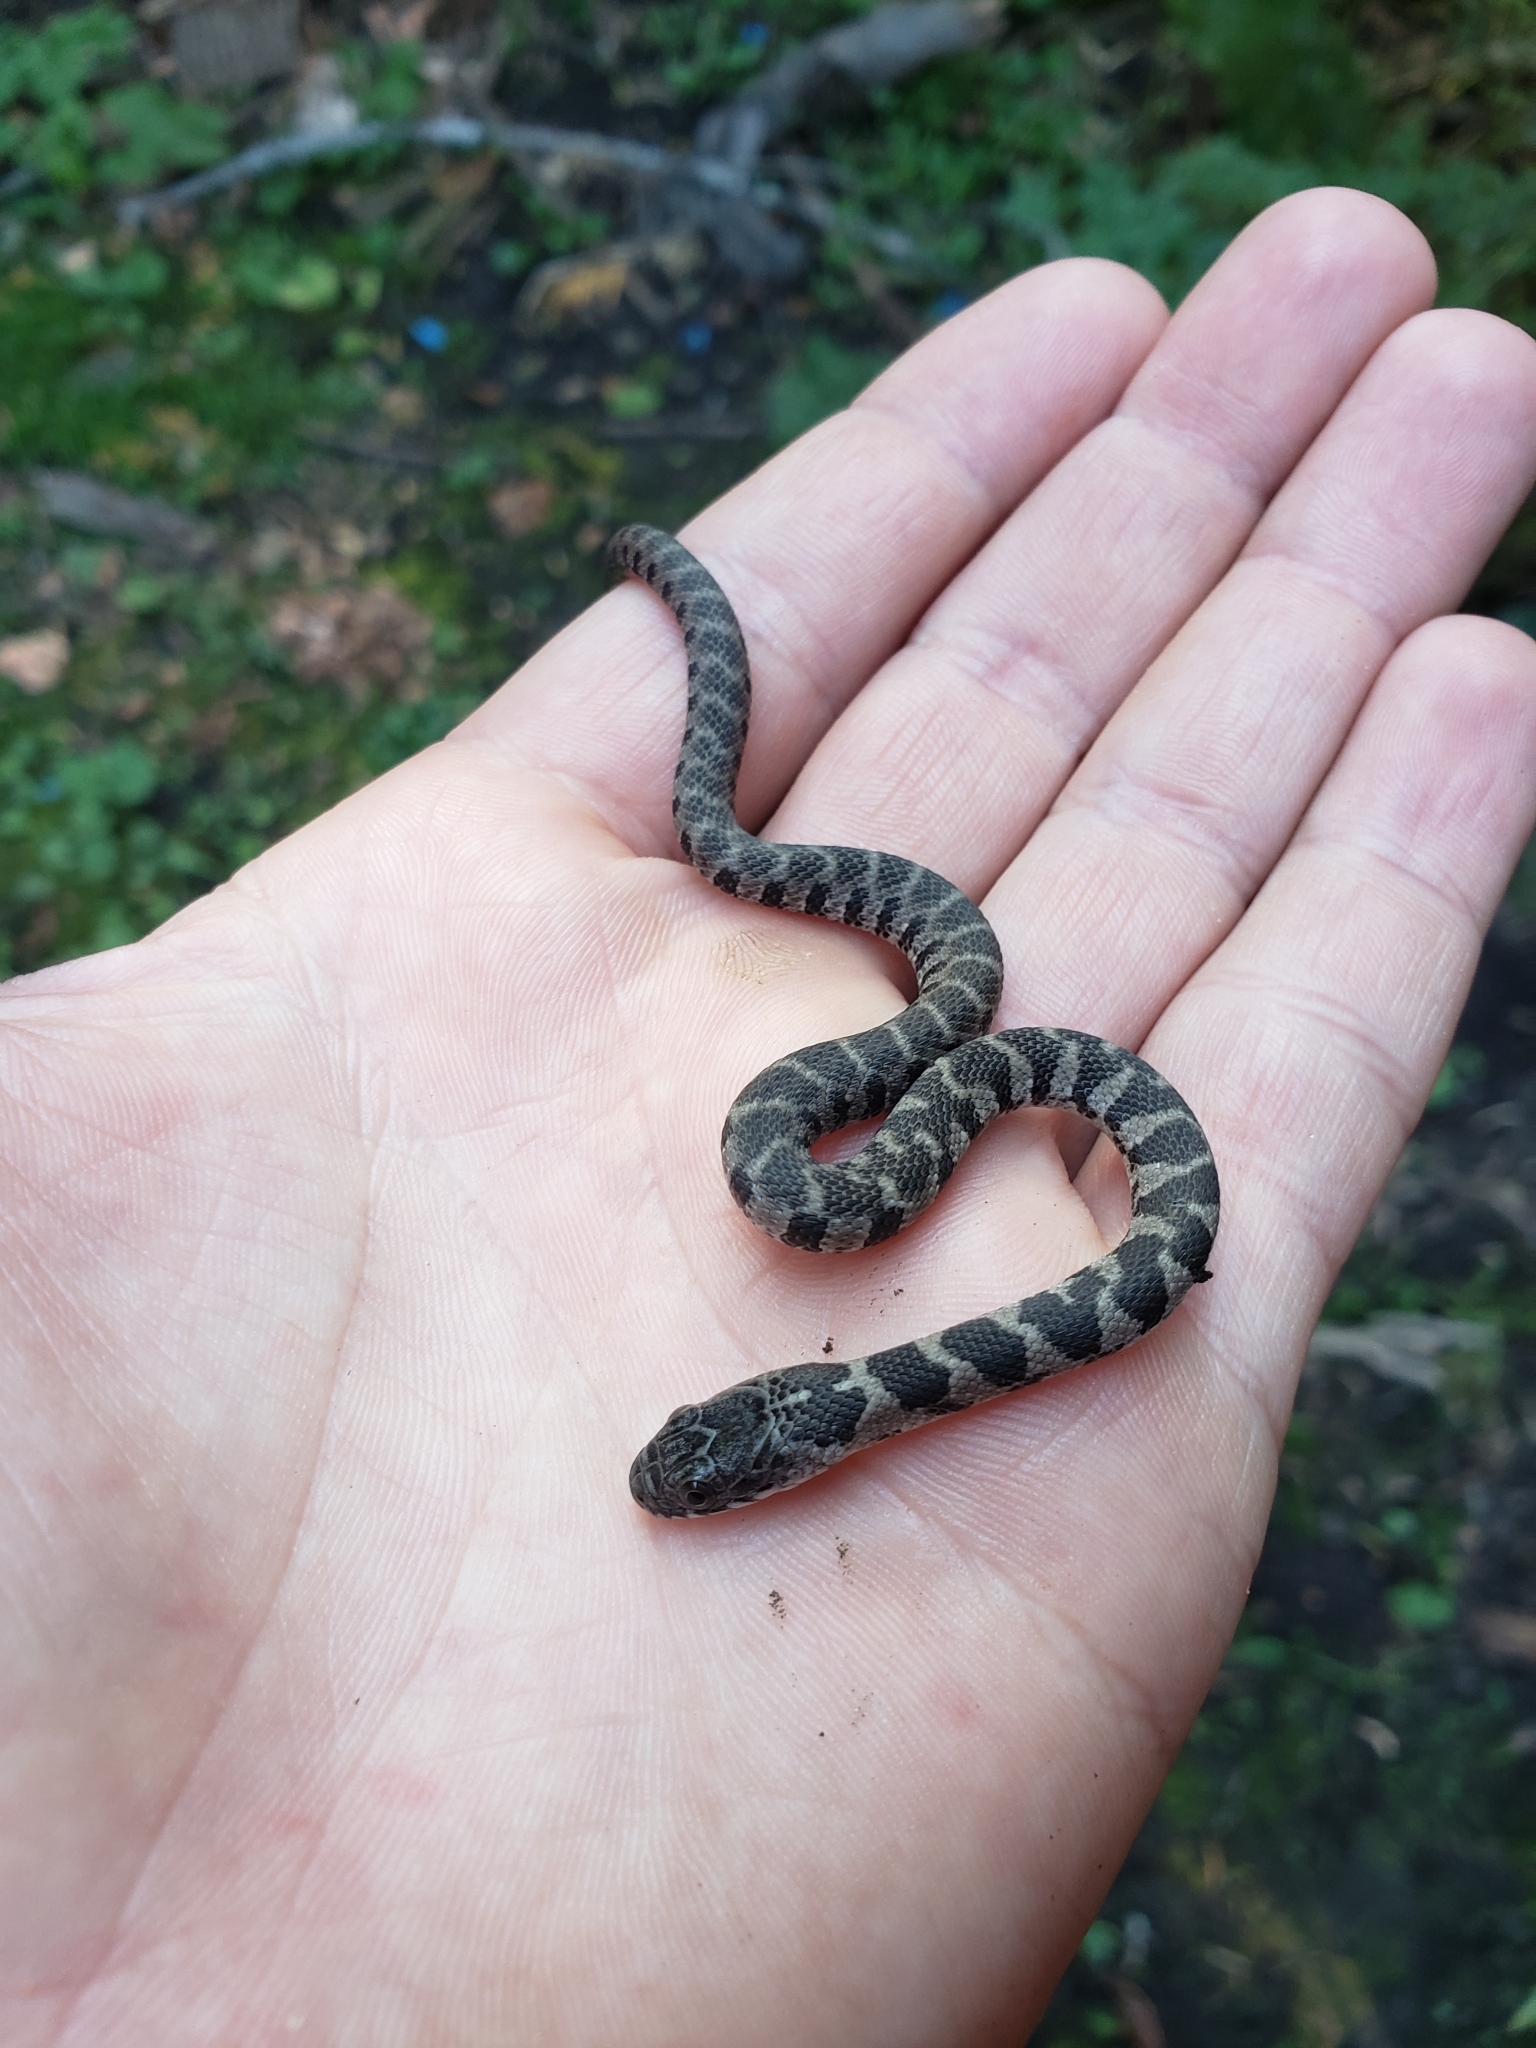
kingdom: Animalia
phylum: Chordata
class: Squamata
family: Colubridae
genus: Nerodia
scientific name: Nerodia sipedon
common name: Northern water snake
